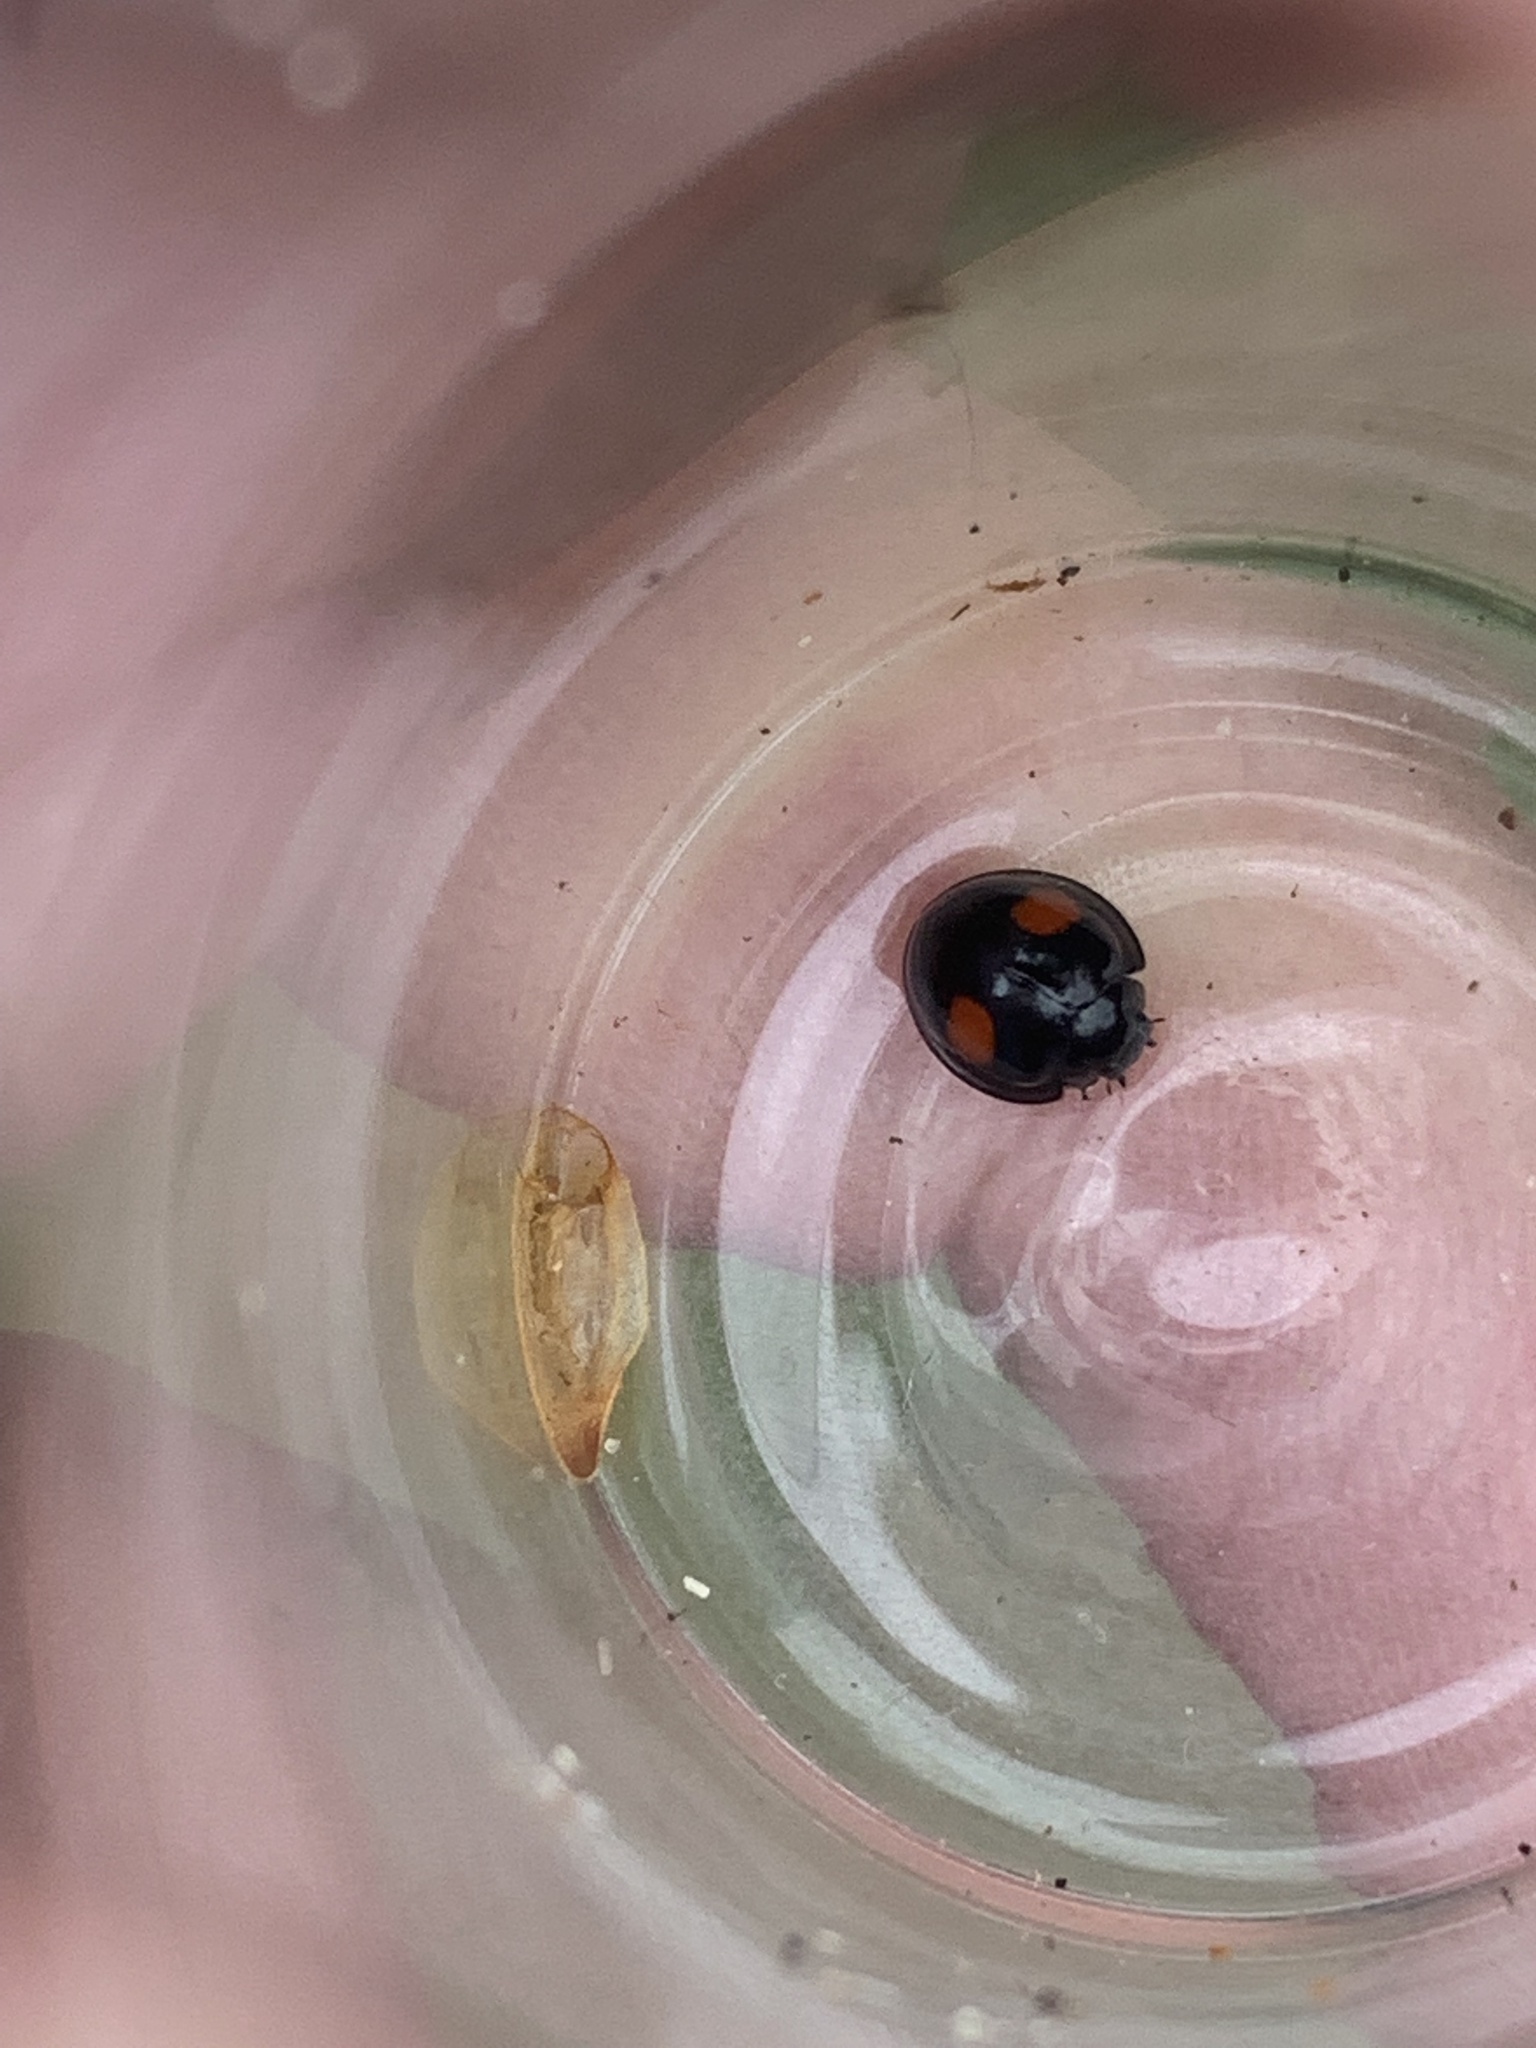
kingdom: Animalia
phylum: Arthropoda
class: Insecta
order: Coleoptera
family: Coccinellidae
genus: Chilocorus
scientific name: Chilocorus renipustulatus
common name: Kidney-spot ladybird
